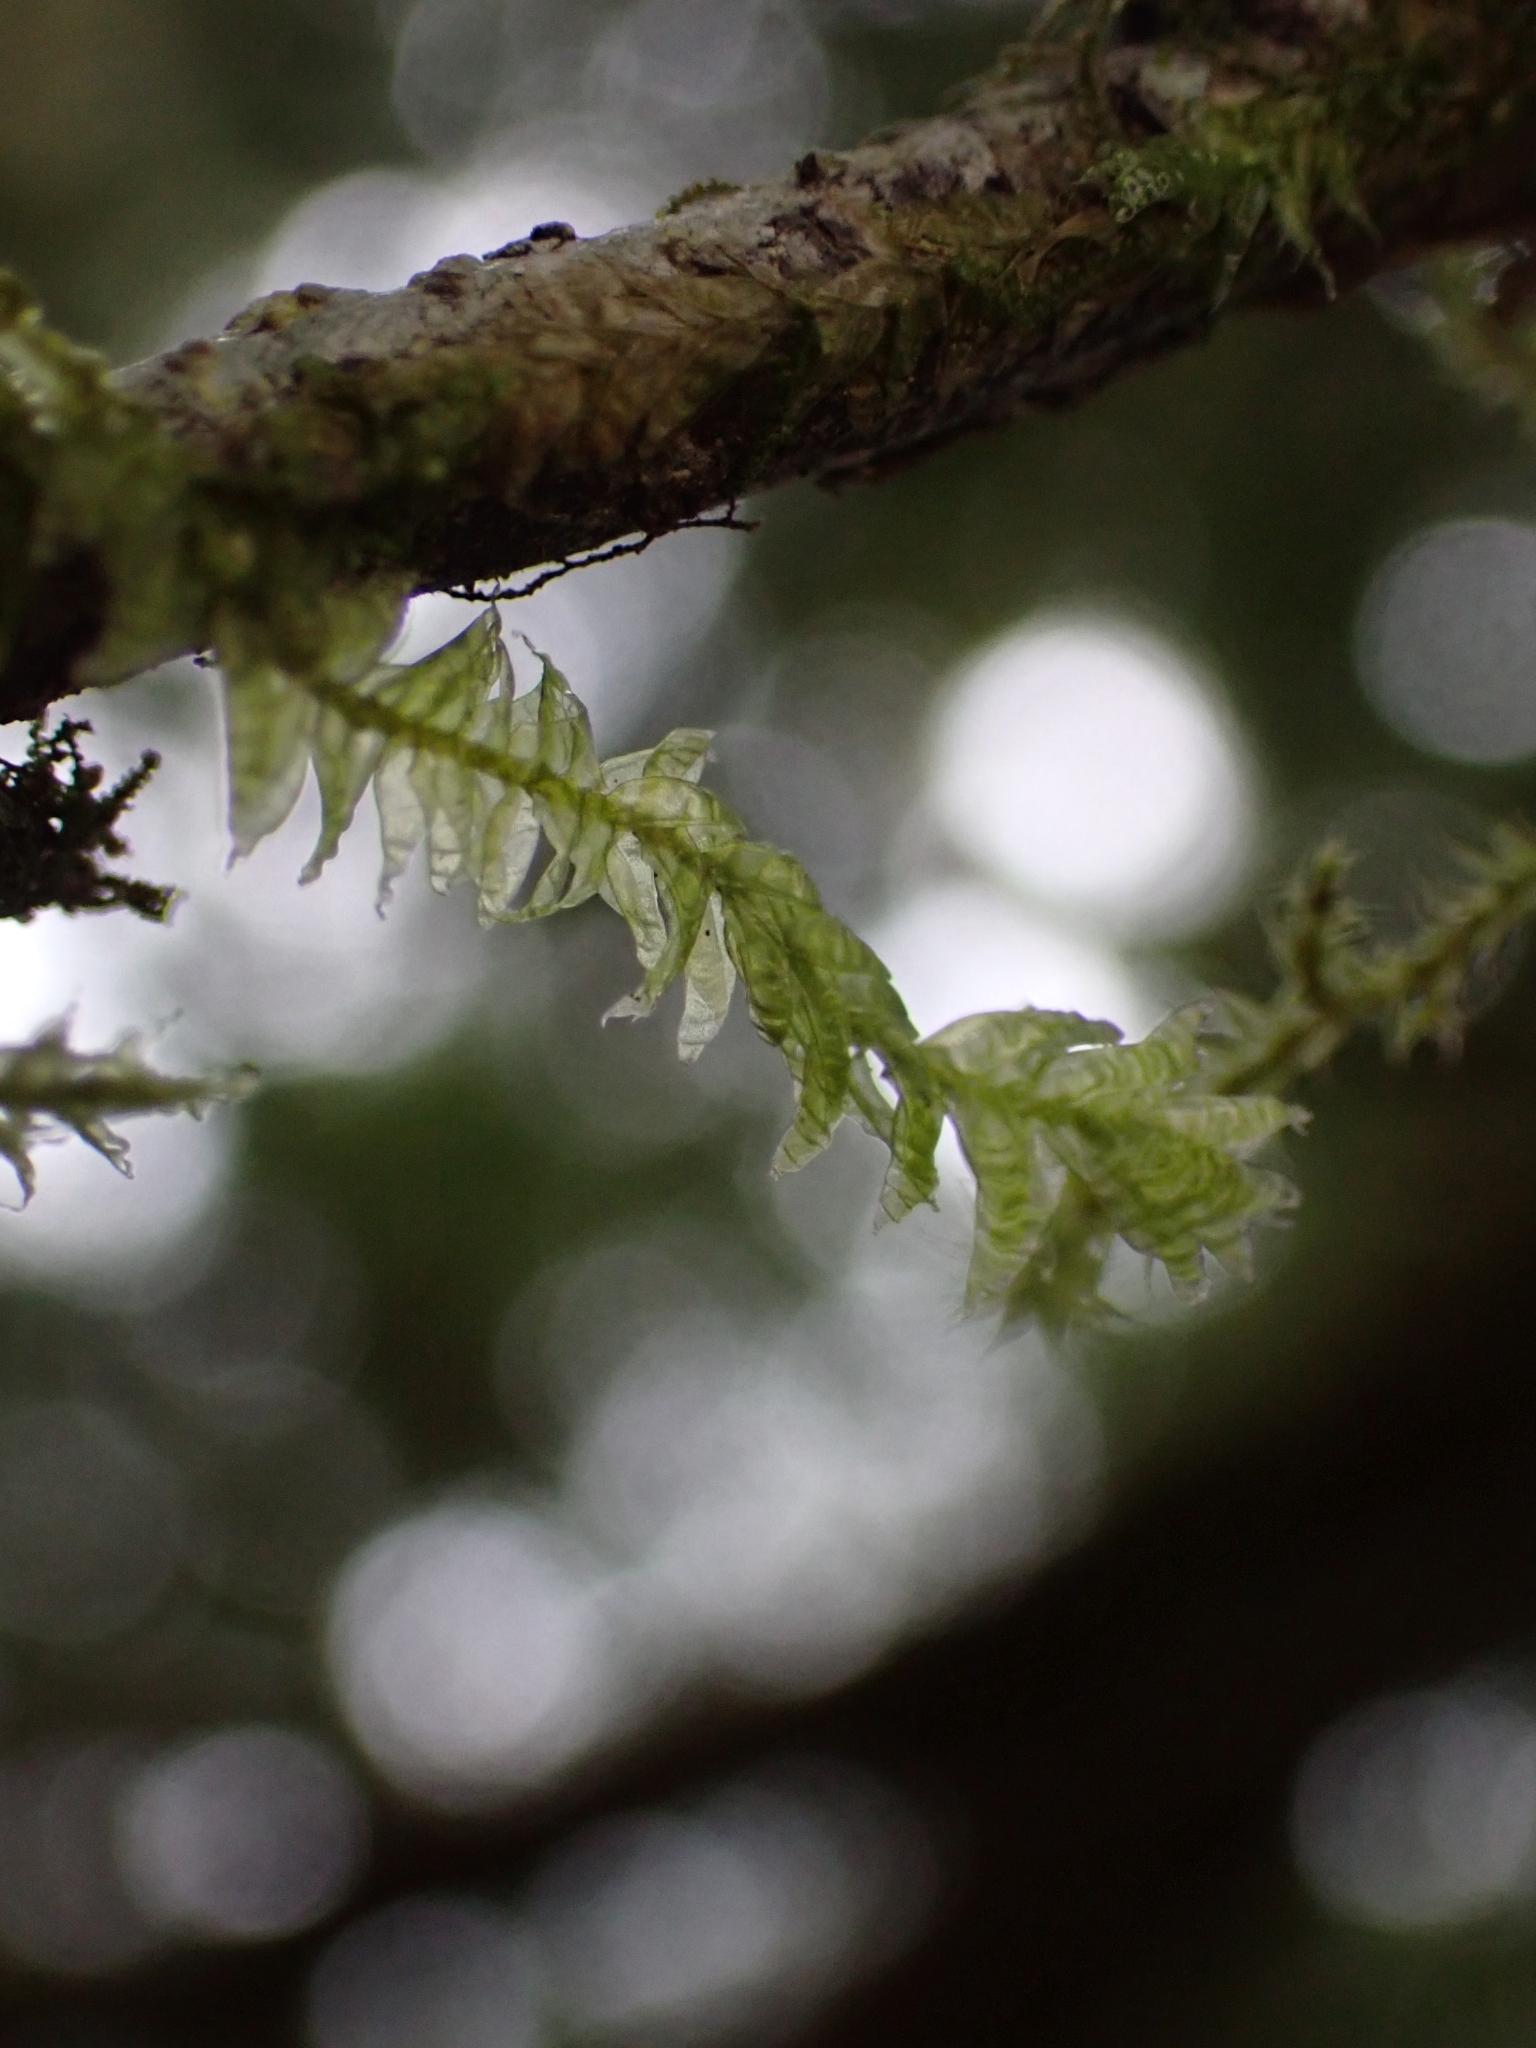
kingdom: Plantae
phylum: Bryophyta
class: Bryopsida
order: Hypnales
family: Neckeraceae
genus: Neckera
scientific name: Neckera douglasii
